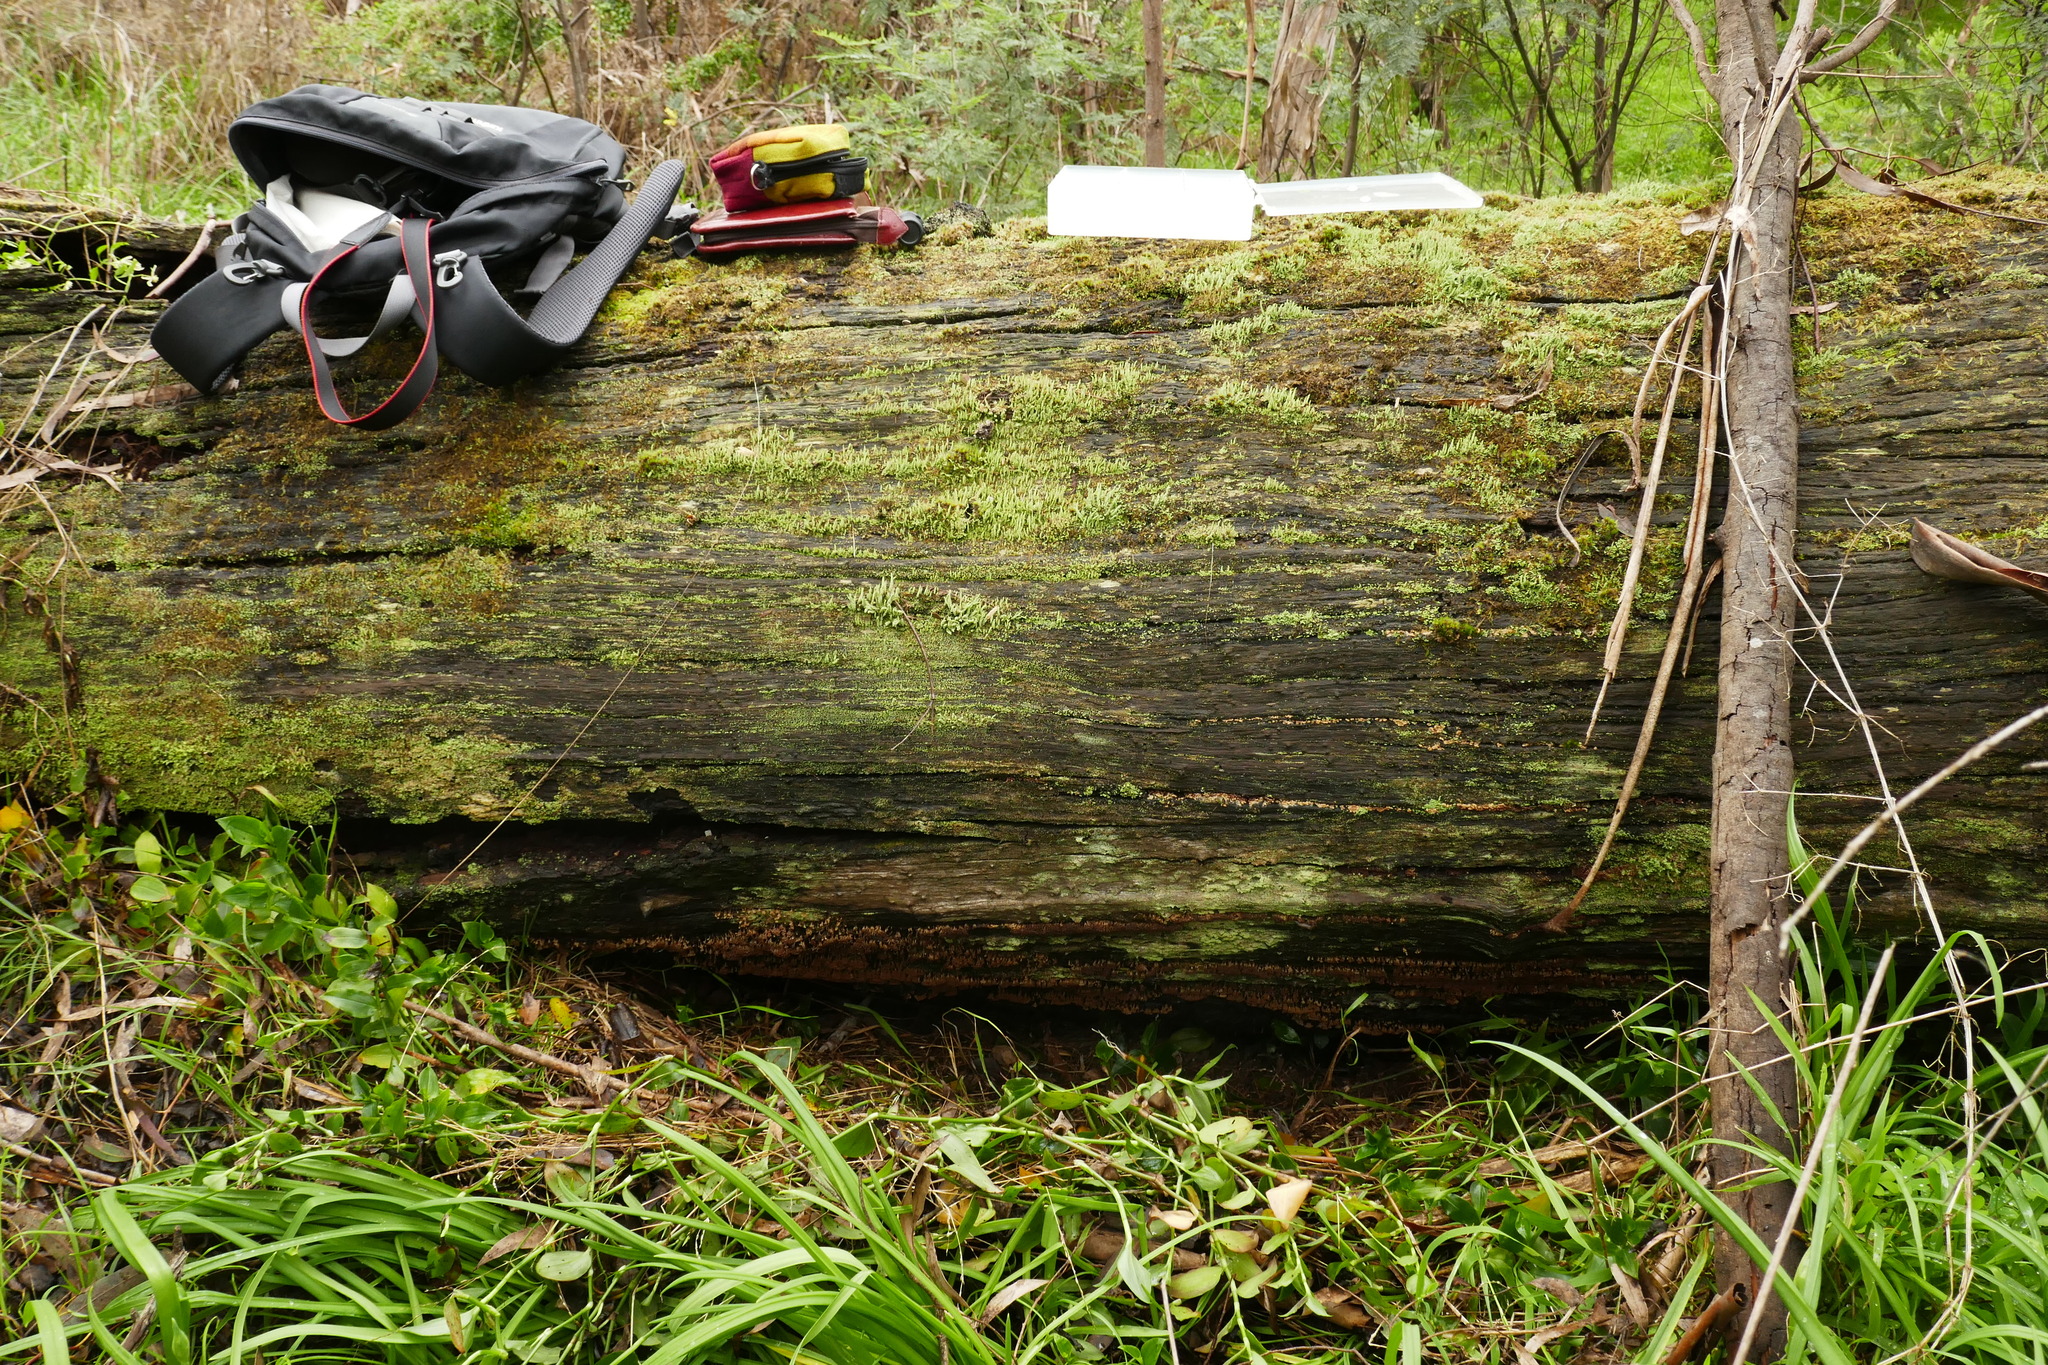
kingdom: Protozoa
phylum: Mycetozoa
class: Myxomycetes
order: Cribrariales
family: Tubiferaceae
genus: Alwisia
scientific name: Alwisia lloydiae
